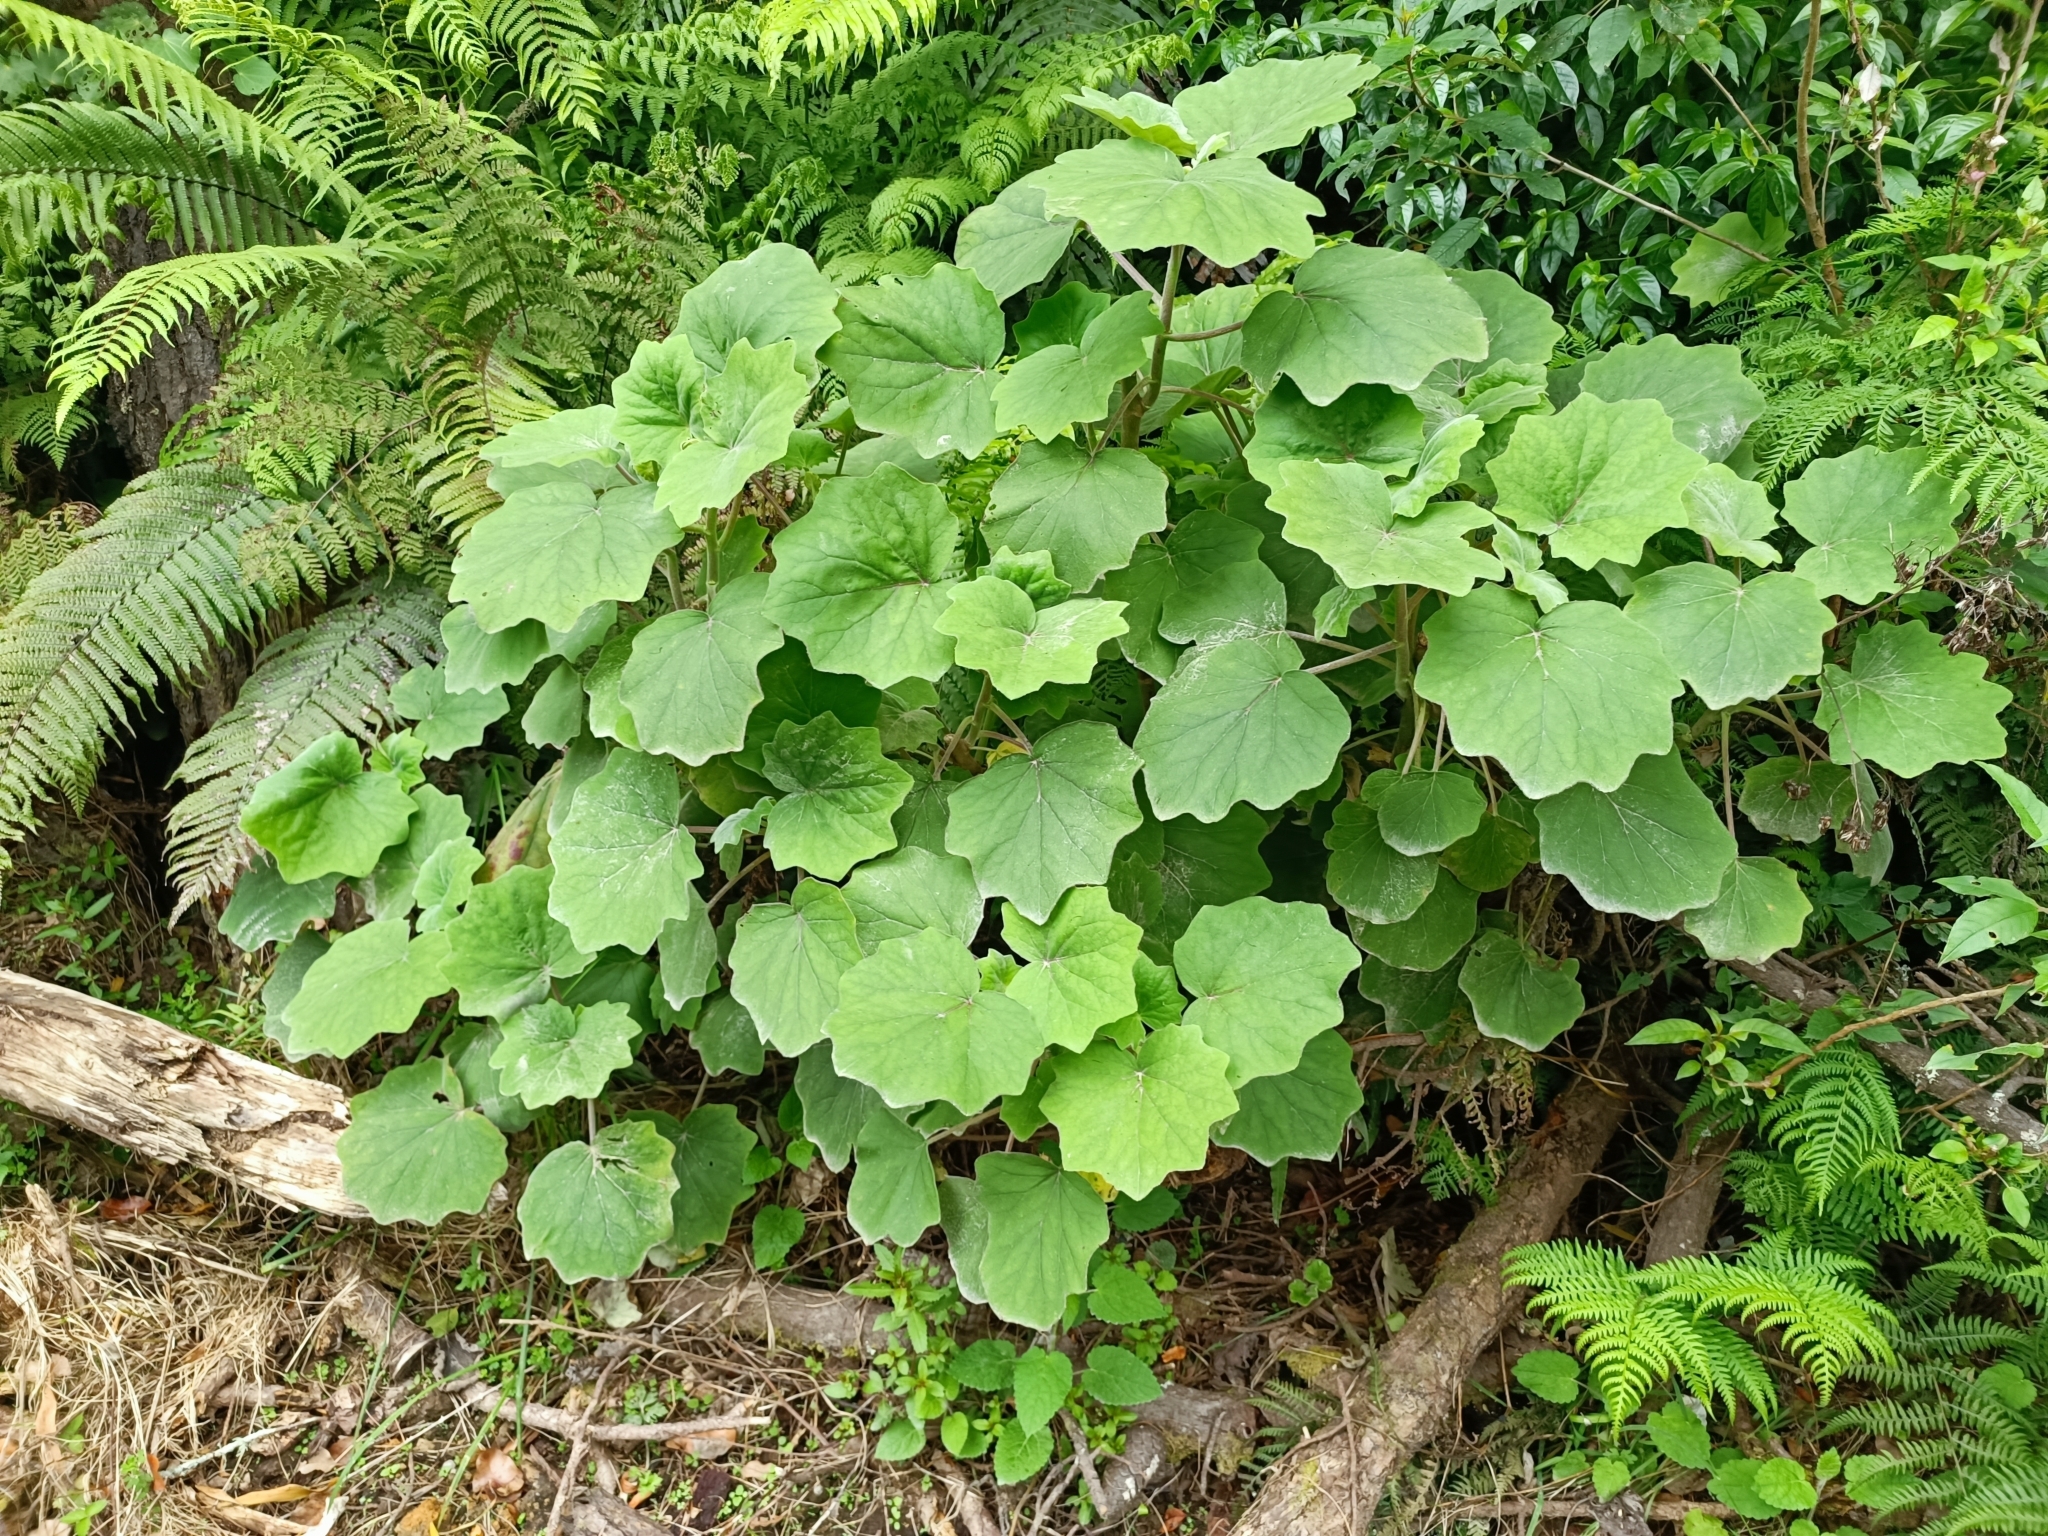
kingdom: Plantae
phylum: Tracheophyta
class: Magnoliopsida
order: Asterales
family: Asteraceae
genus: Roldana
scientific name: Roldana petasitis
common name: California-geranium
